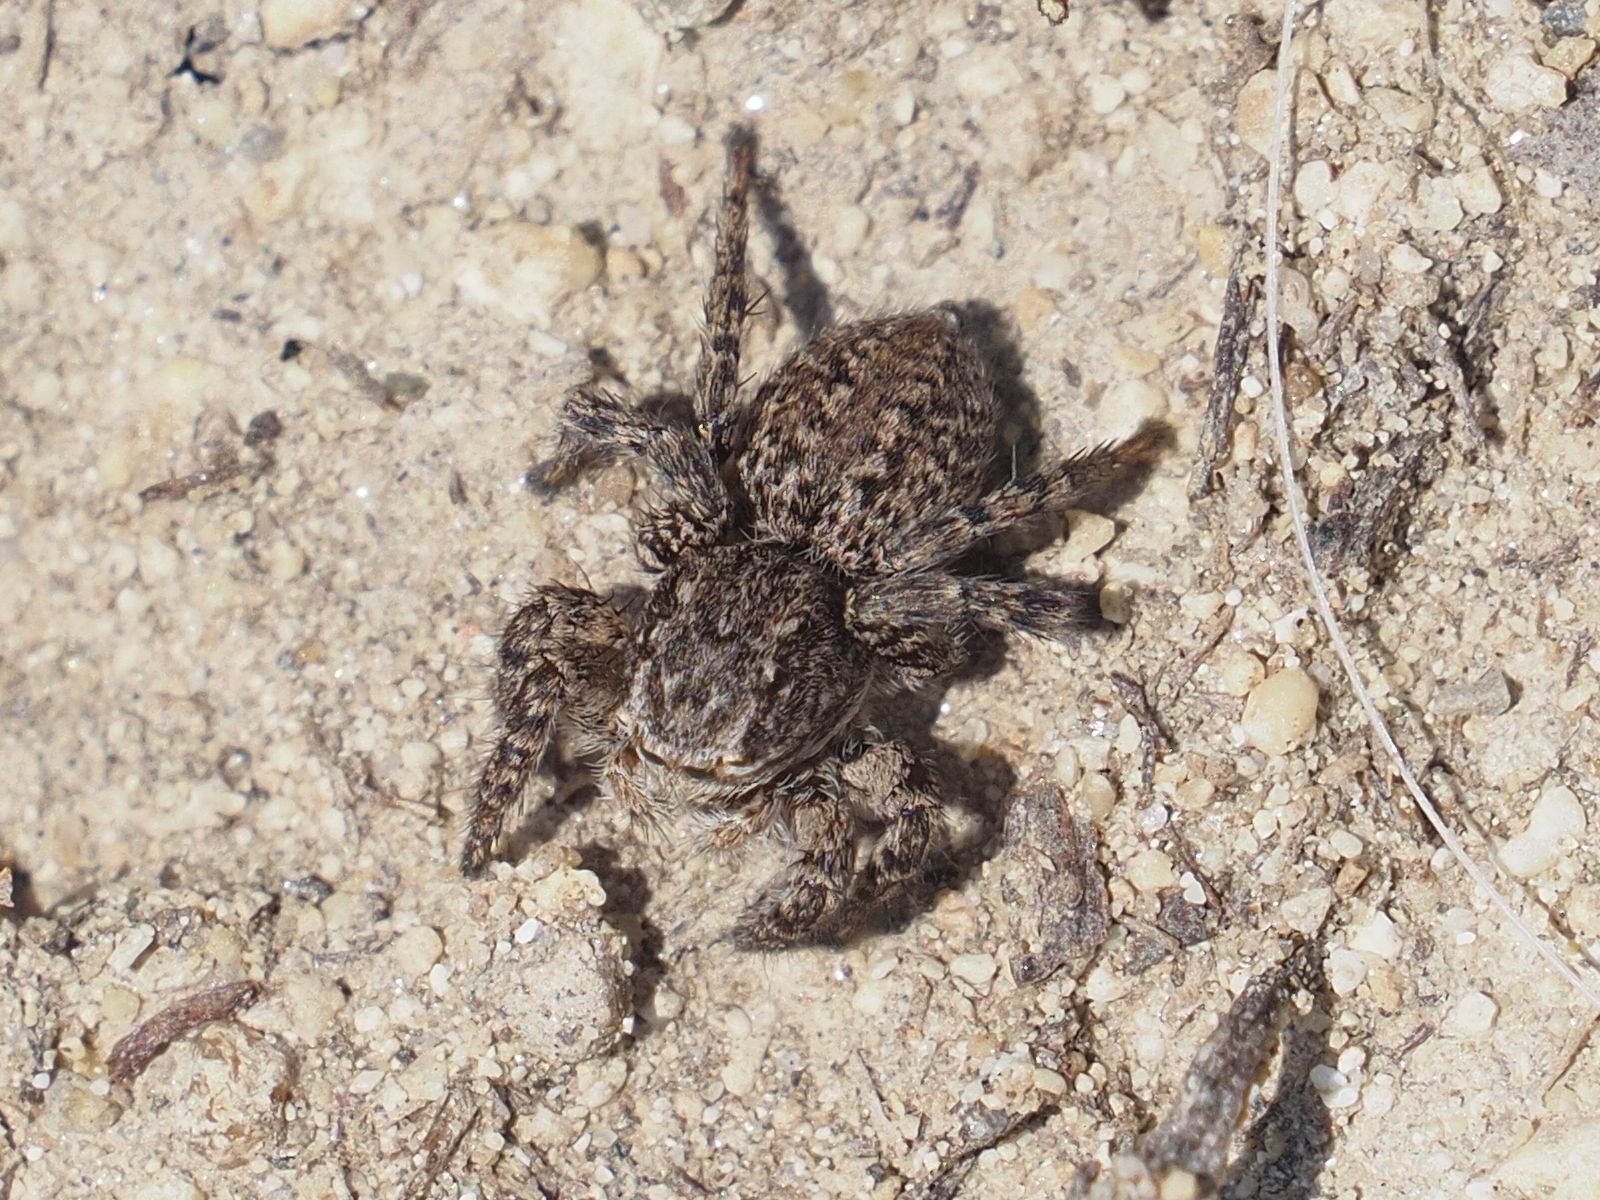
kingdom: Animalia
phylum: Arthropoda
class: Arachnida
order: Araneae
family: Salticidae
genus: Aelurillus
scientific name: Aelurillus v-insignitus
